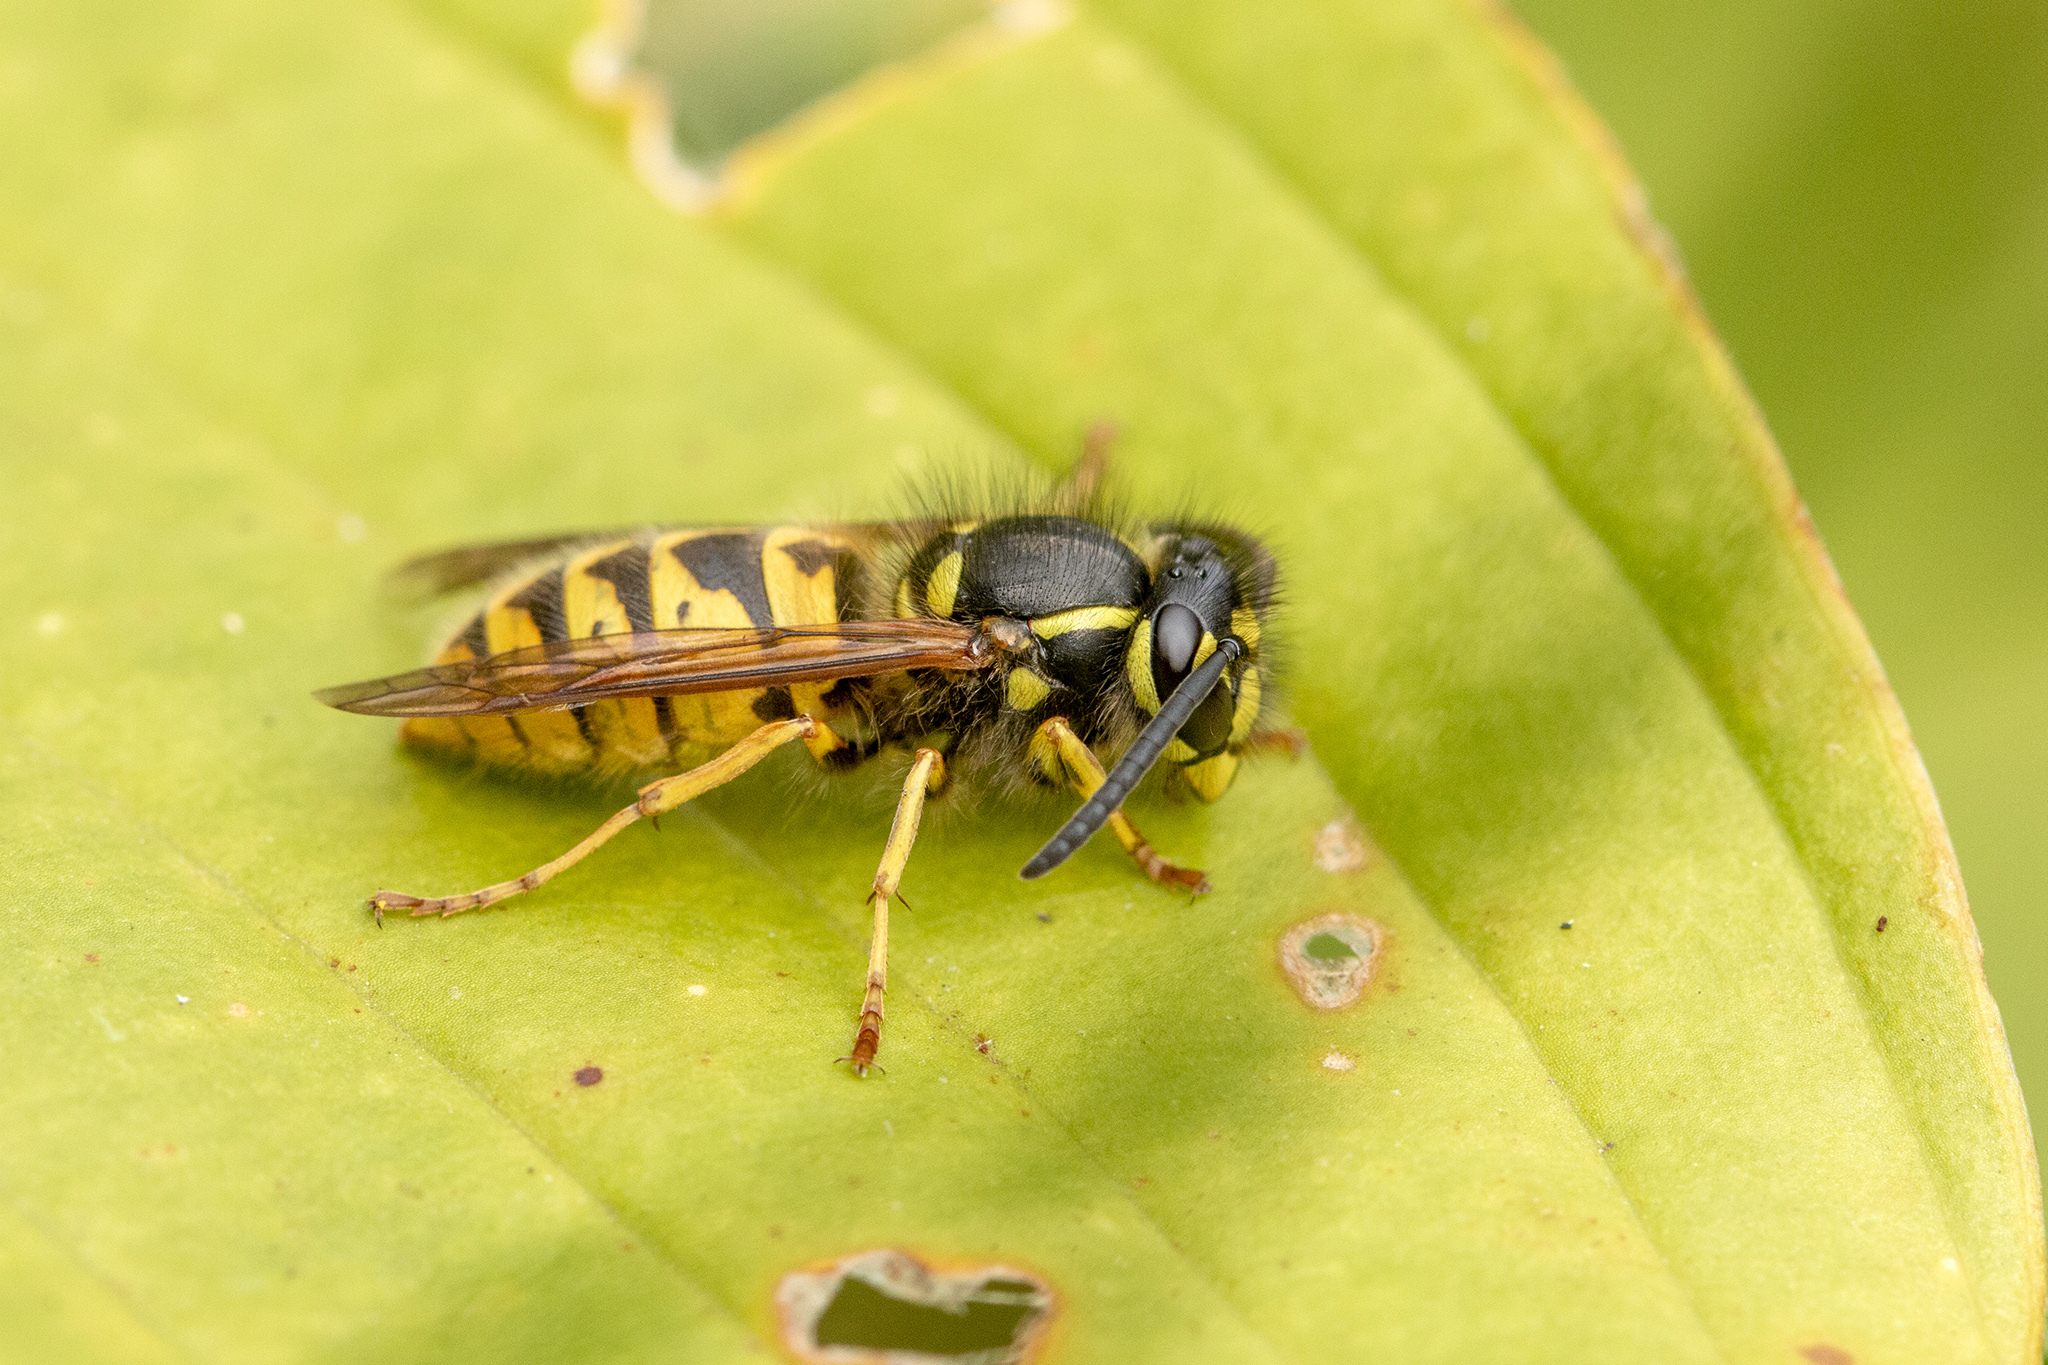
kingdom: Animalia
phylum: Arthropoda
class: Insecta
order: Hymenoptera
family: Vespidae
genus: Vespula
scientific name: Vespula vulgaris
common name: Common wasp
